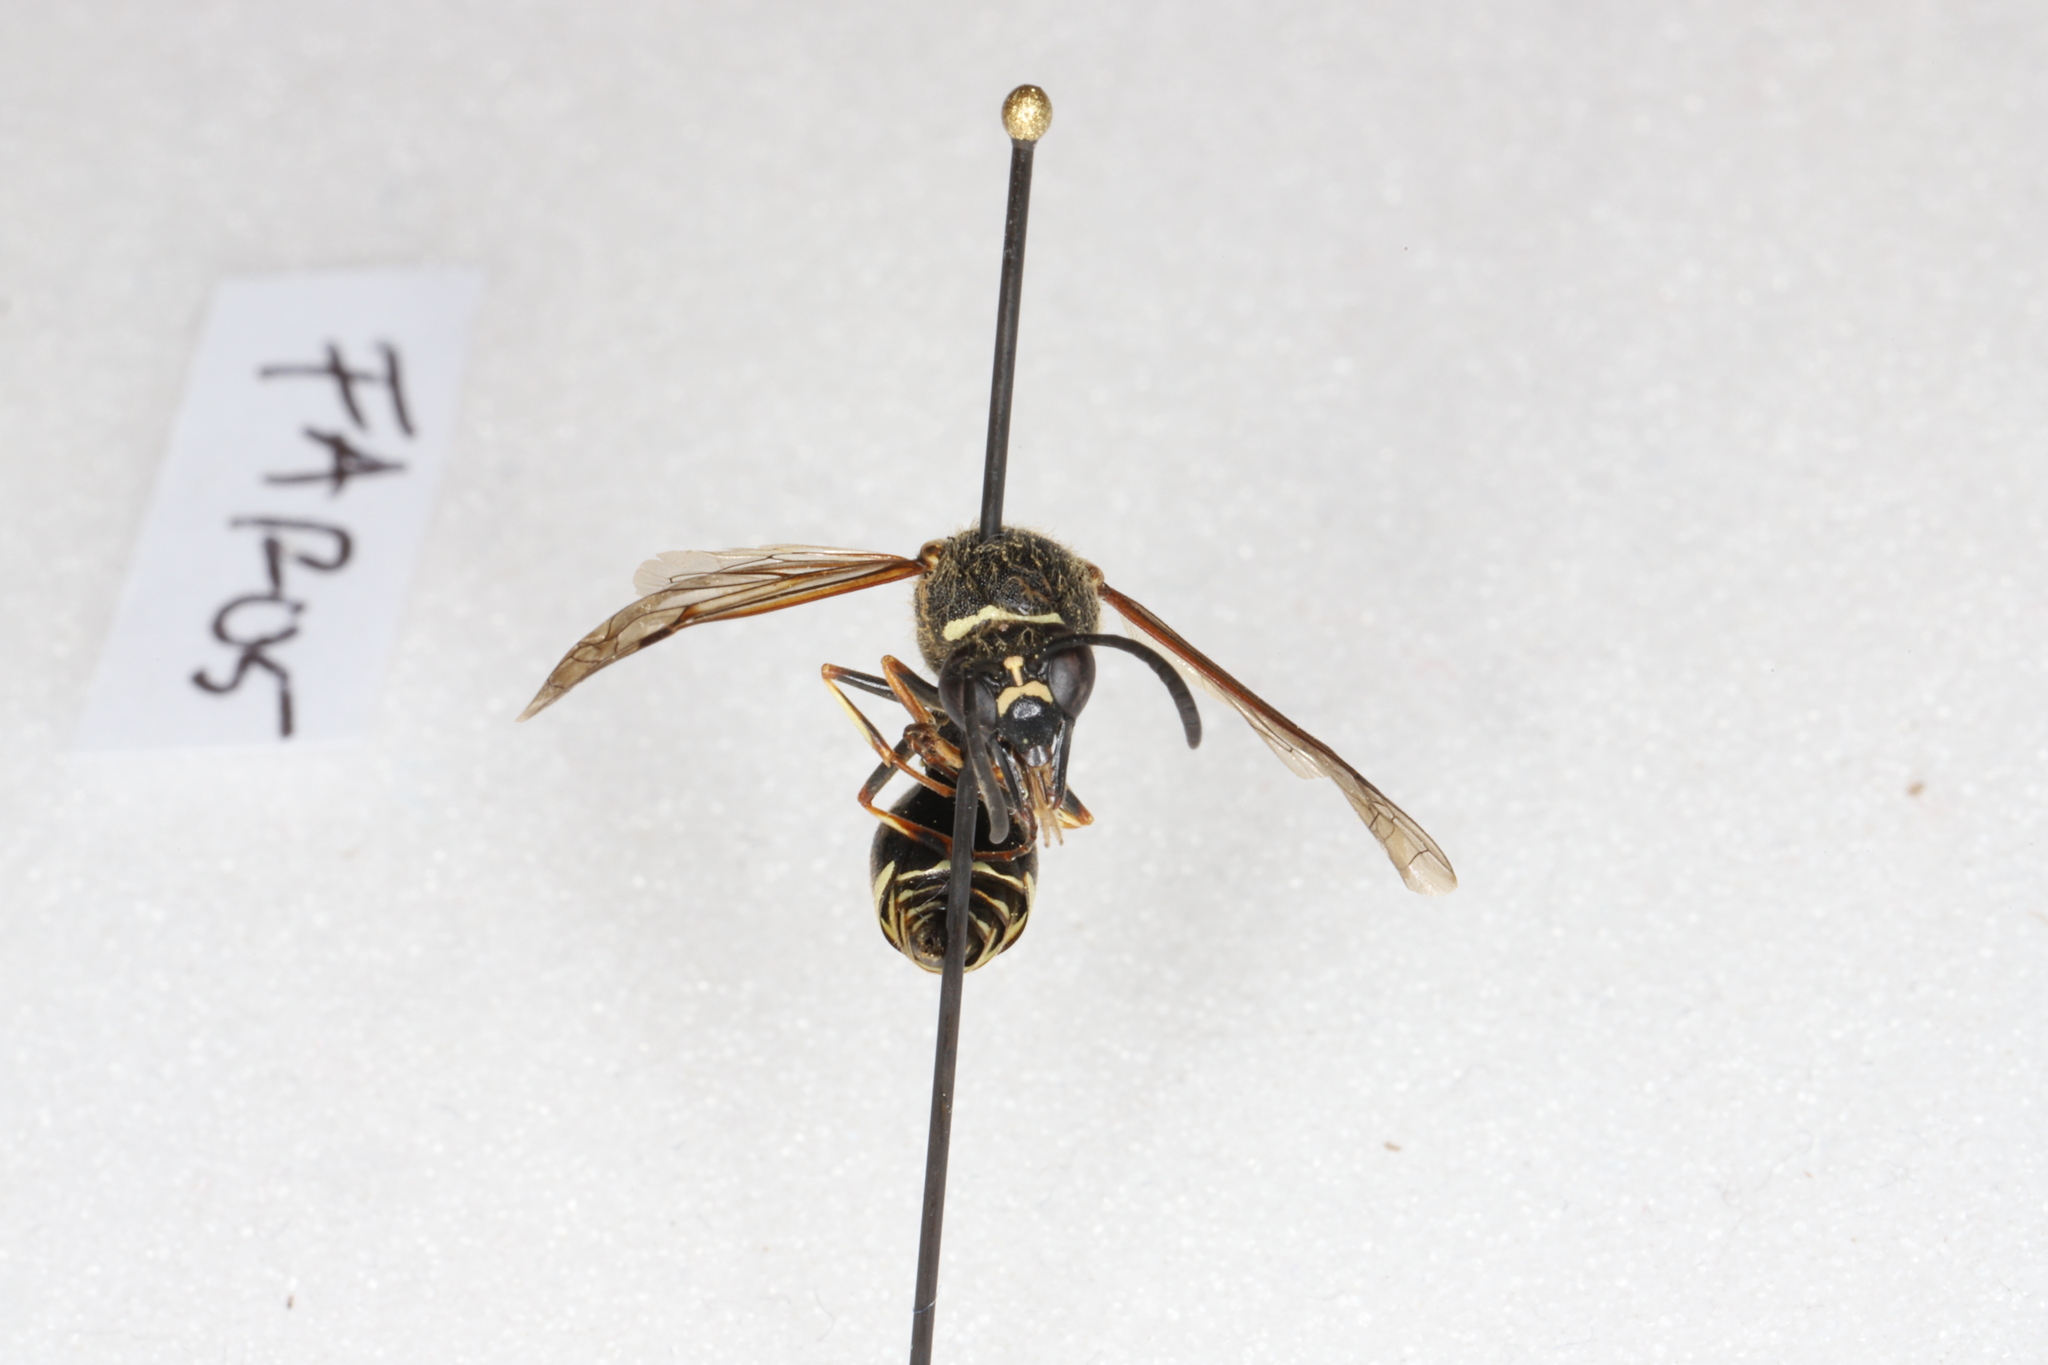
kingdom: Animalia
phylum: Arthropoda
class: Insecta
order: Hymenoptera
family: Vespidae
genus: Eumenes
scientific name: Eumenes crucifera
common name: Cross potter wasp
